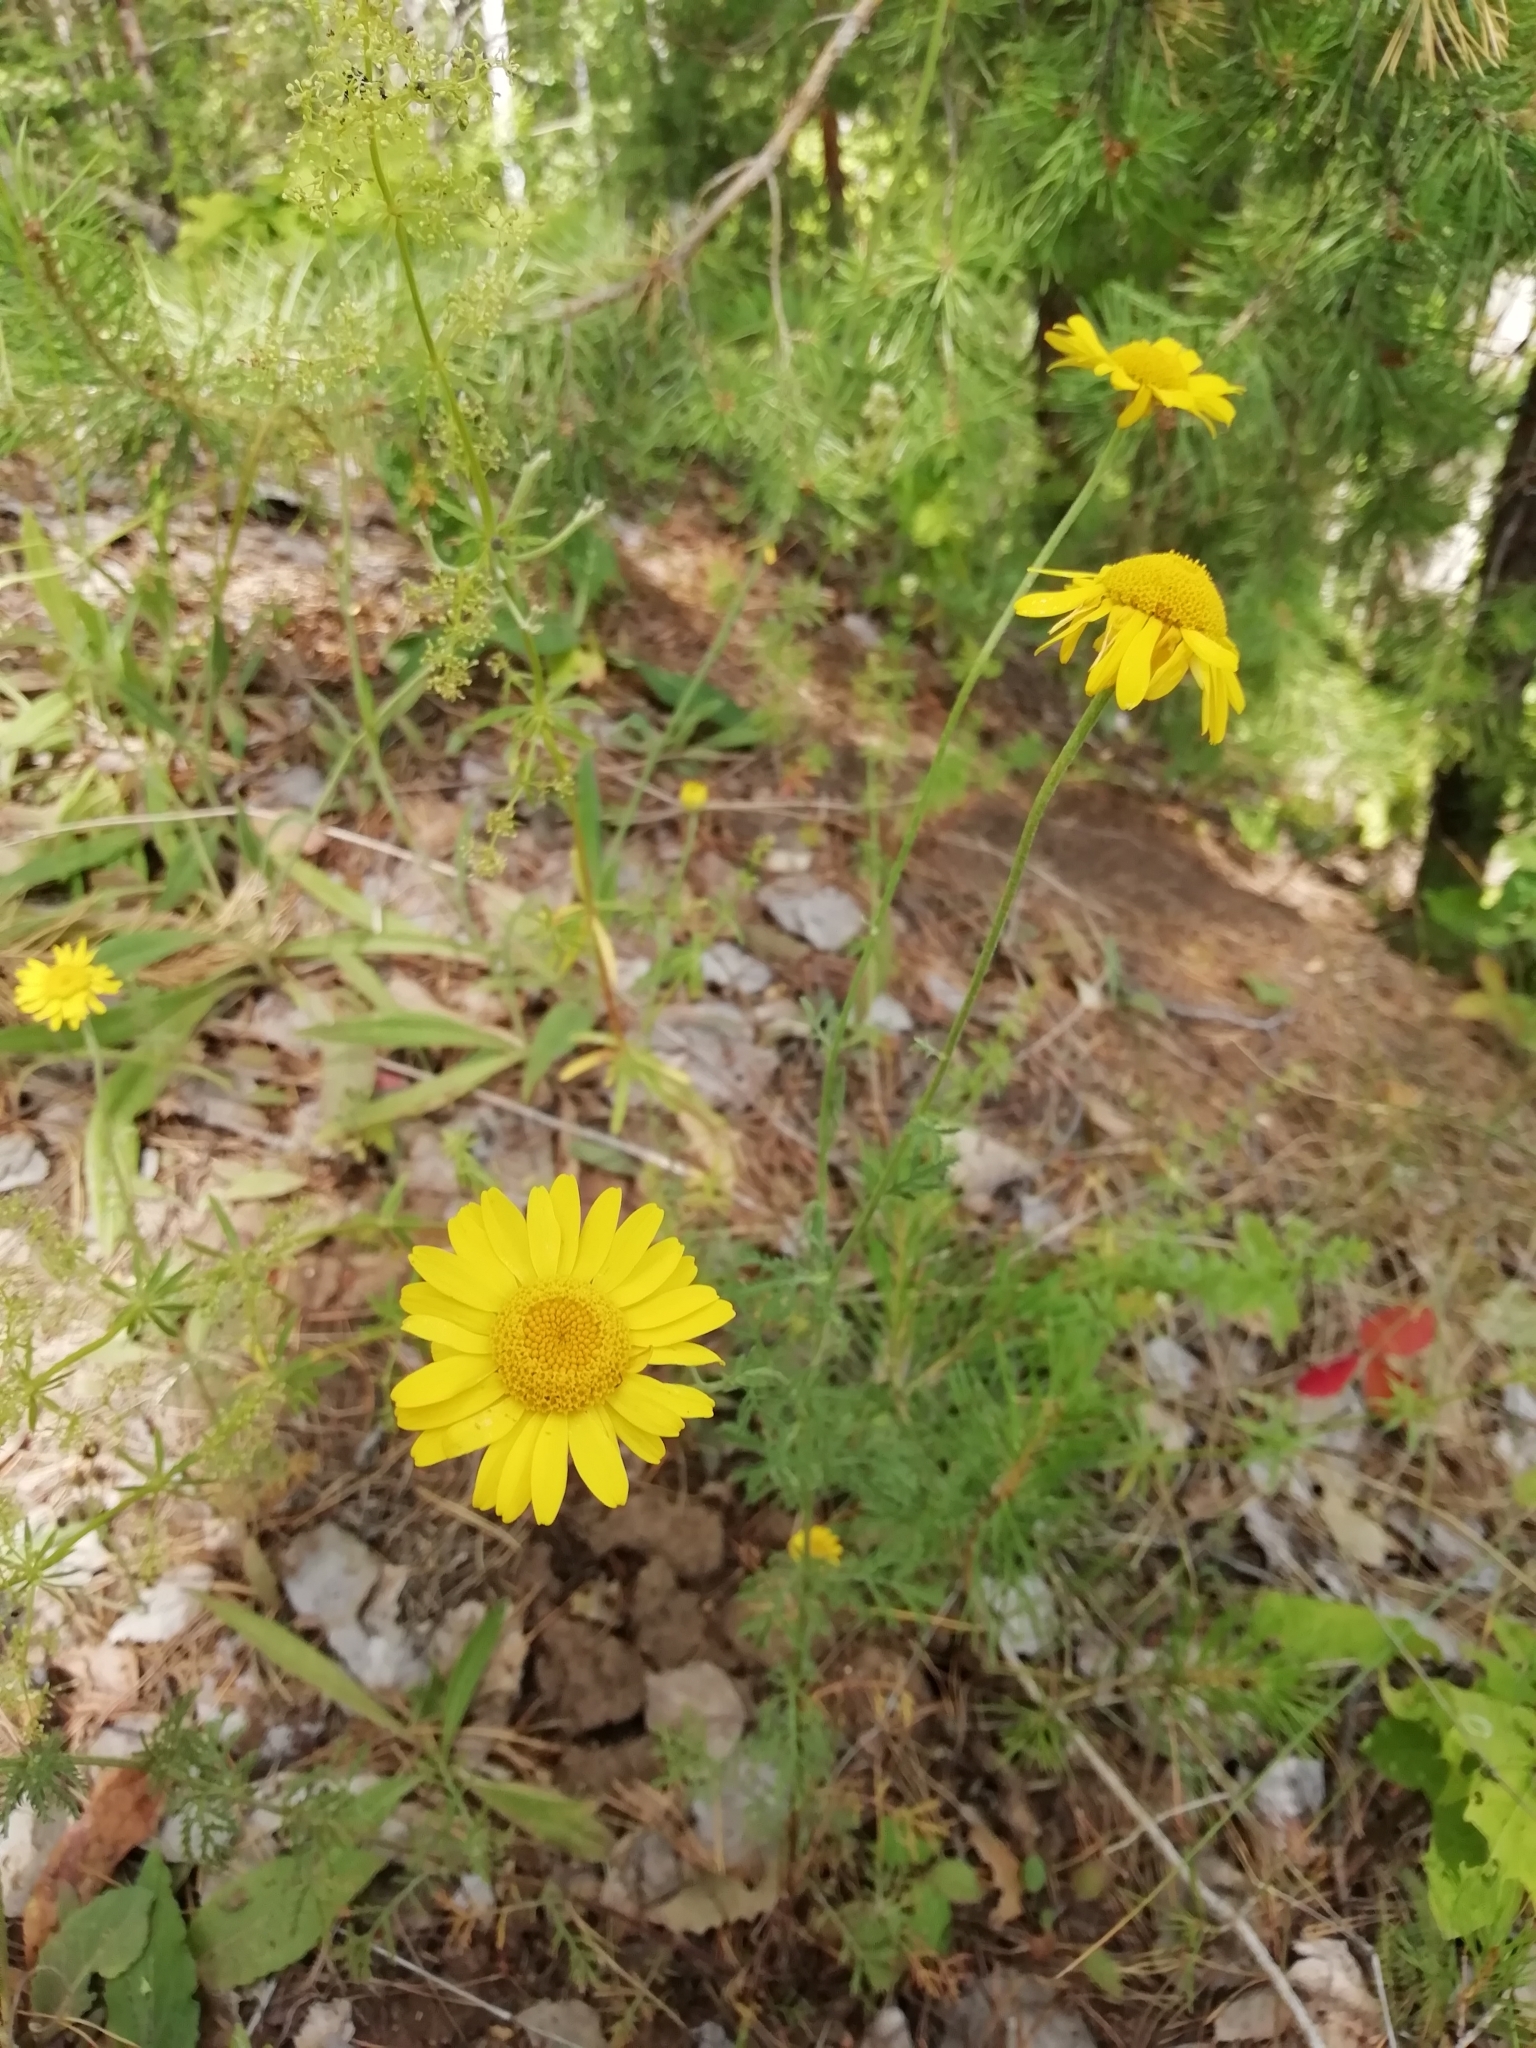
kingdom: Plantae
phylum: Tracheophyta
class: Magnoliopsida
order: Asterales
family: Asteraceae
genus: Cota
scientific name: Cota tinctoria
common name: Golden chamomile
